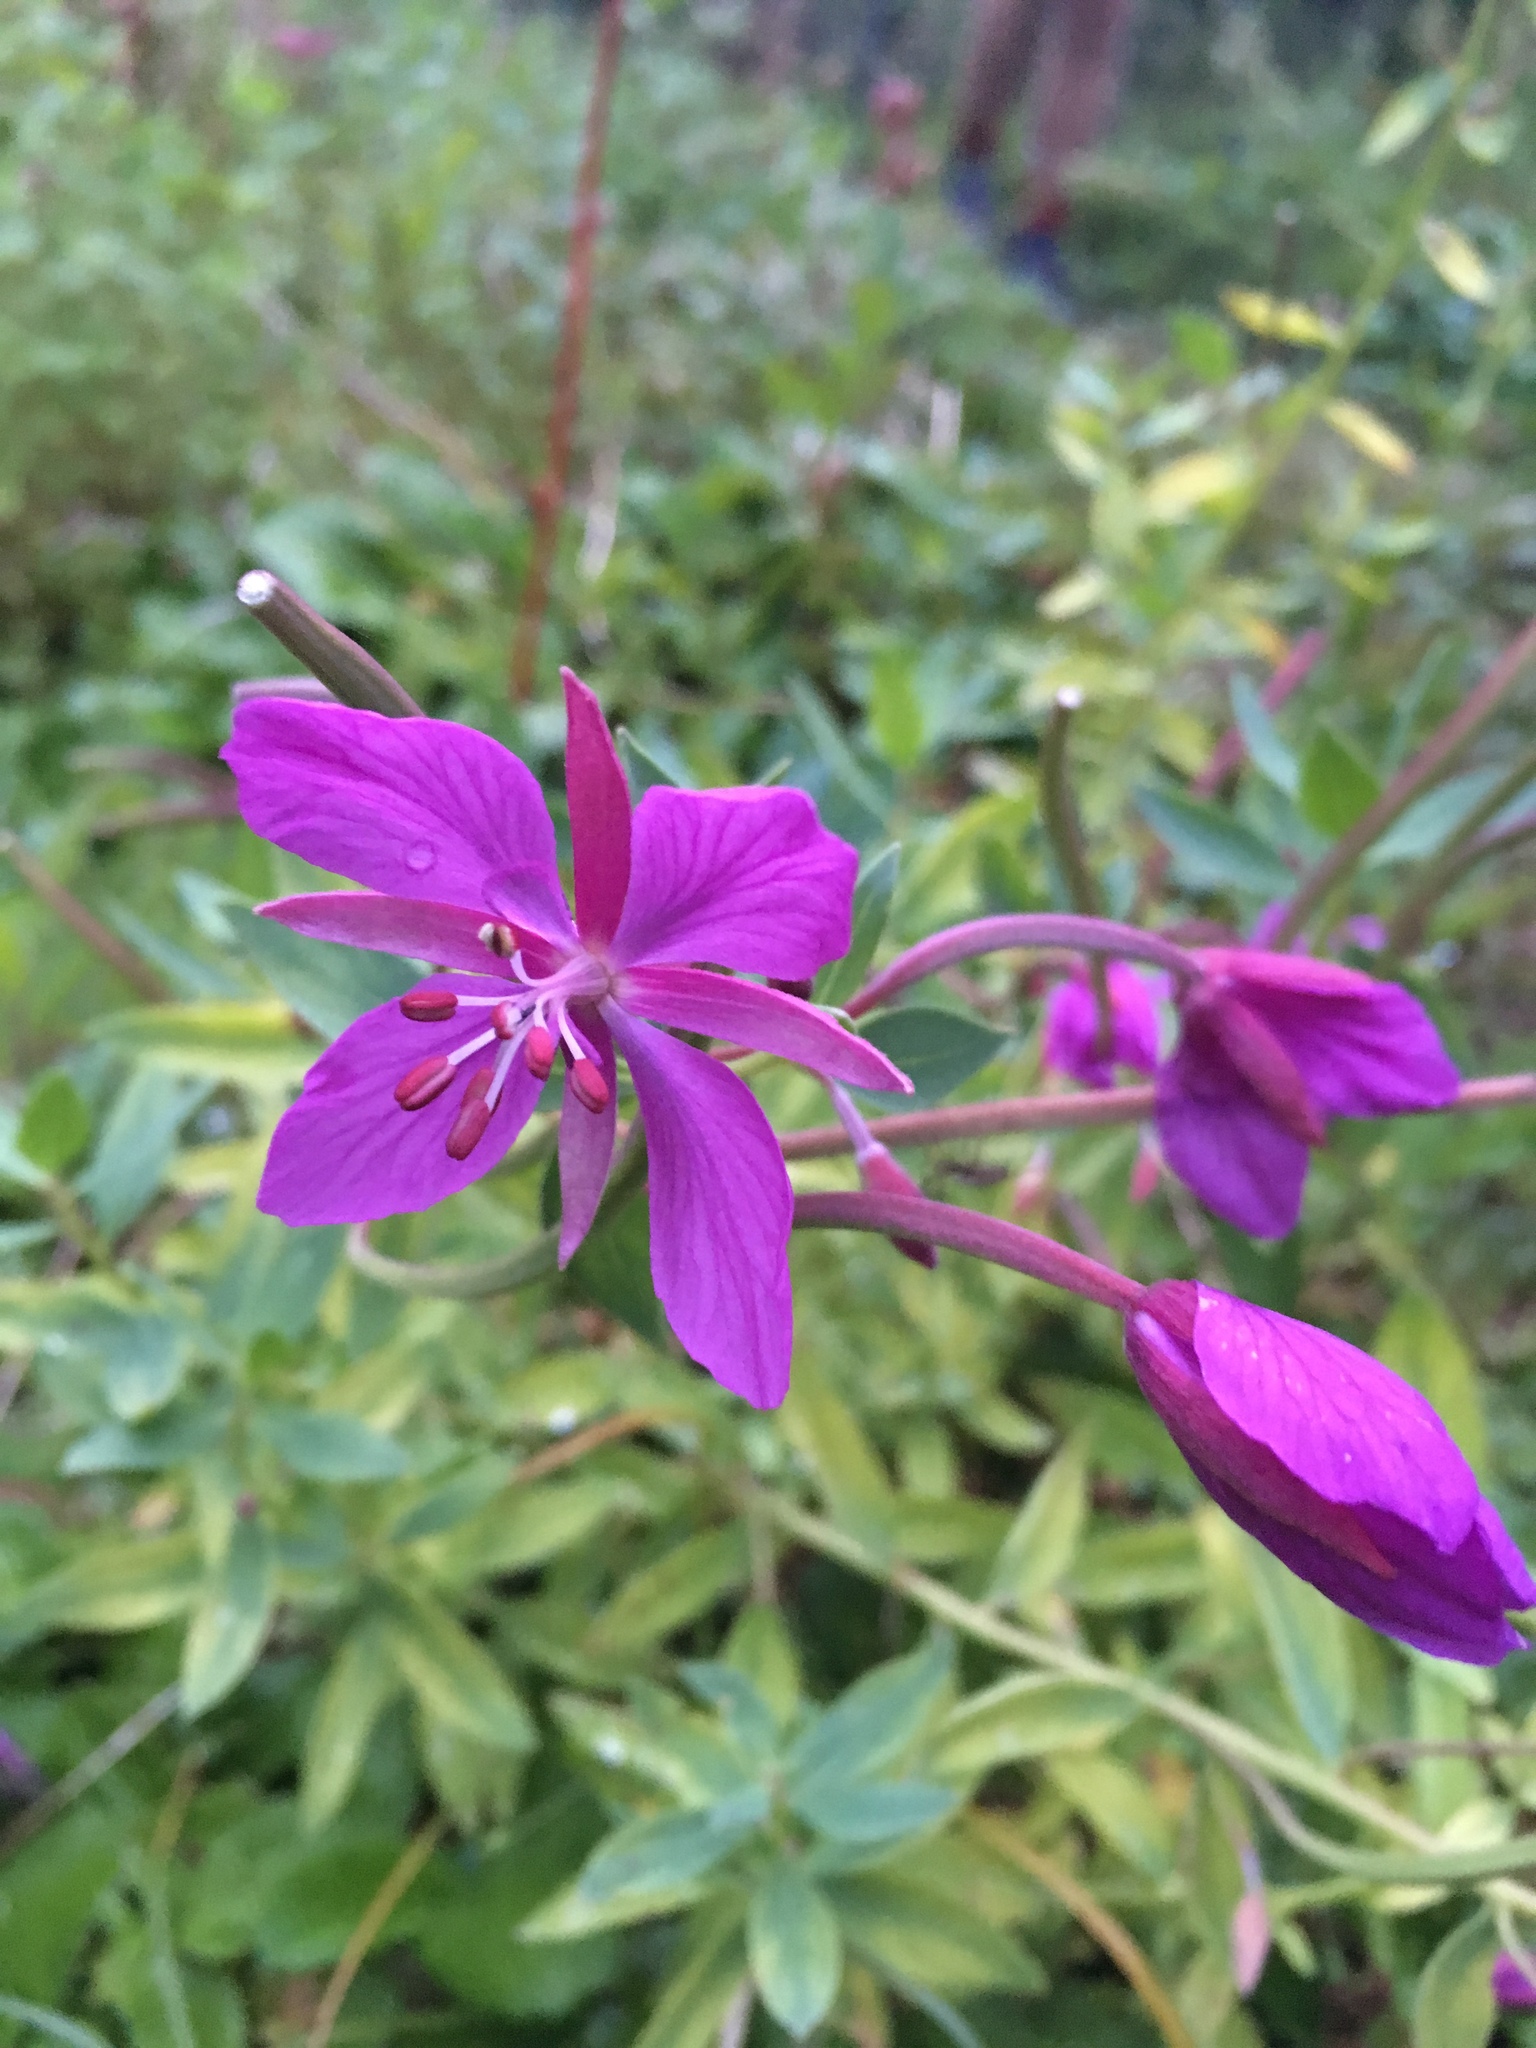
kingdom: Plantae
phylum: Tracheophyta
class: Magnoliopsida
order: Myrtales
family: Onagraceae
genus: Chamaenerion
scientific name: Chamaenerion latifolium
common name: Dwarf fireweed
